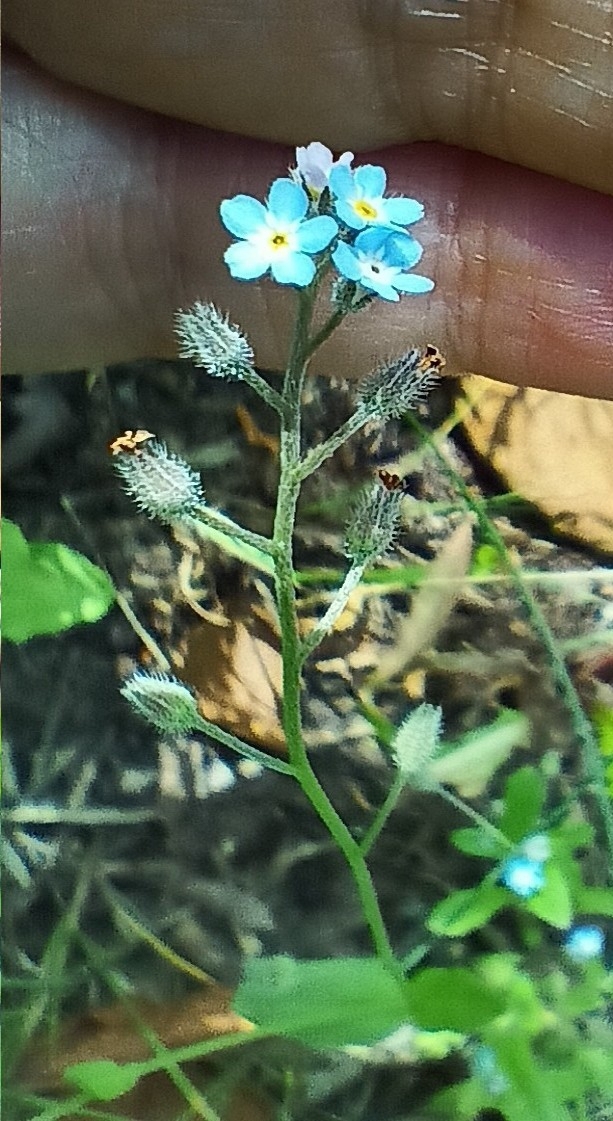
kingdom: Plantae
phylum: Tracheophyta
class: Magnoliopsida
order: Boraginales
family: Boraginaceae
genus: Myosotis
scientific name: Myosotis arvensis
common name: Field forget-me-not
